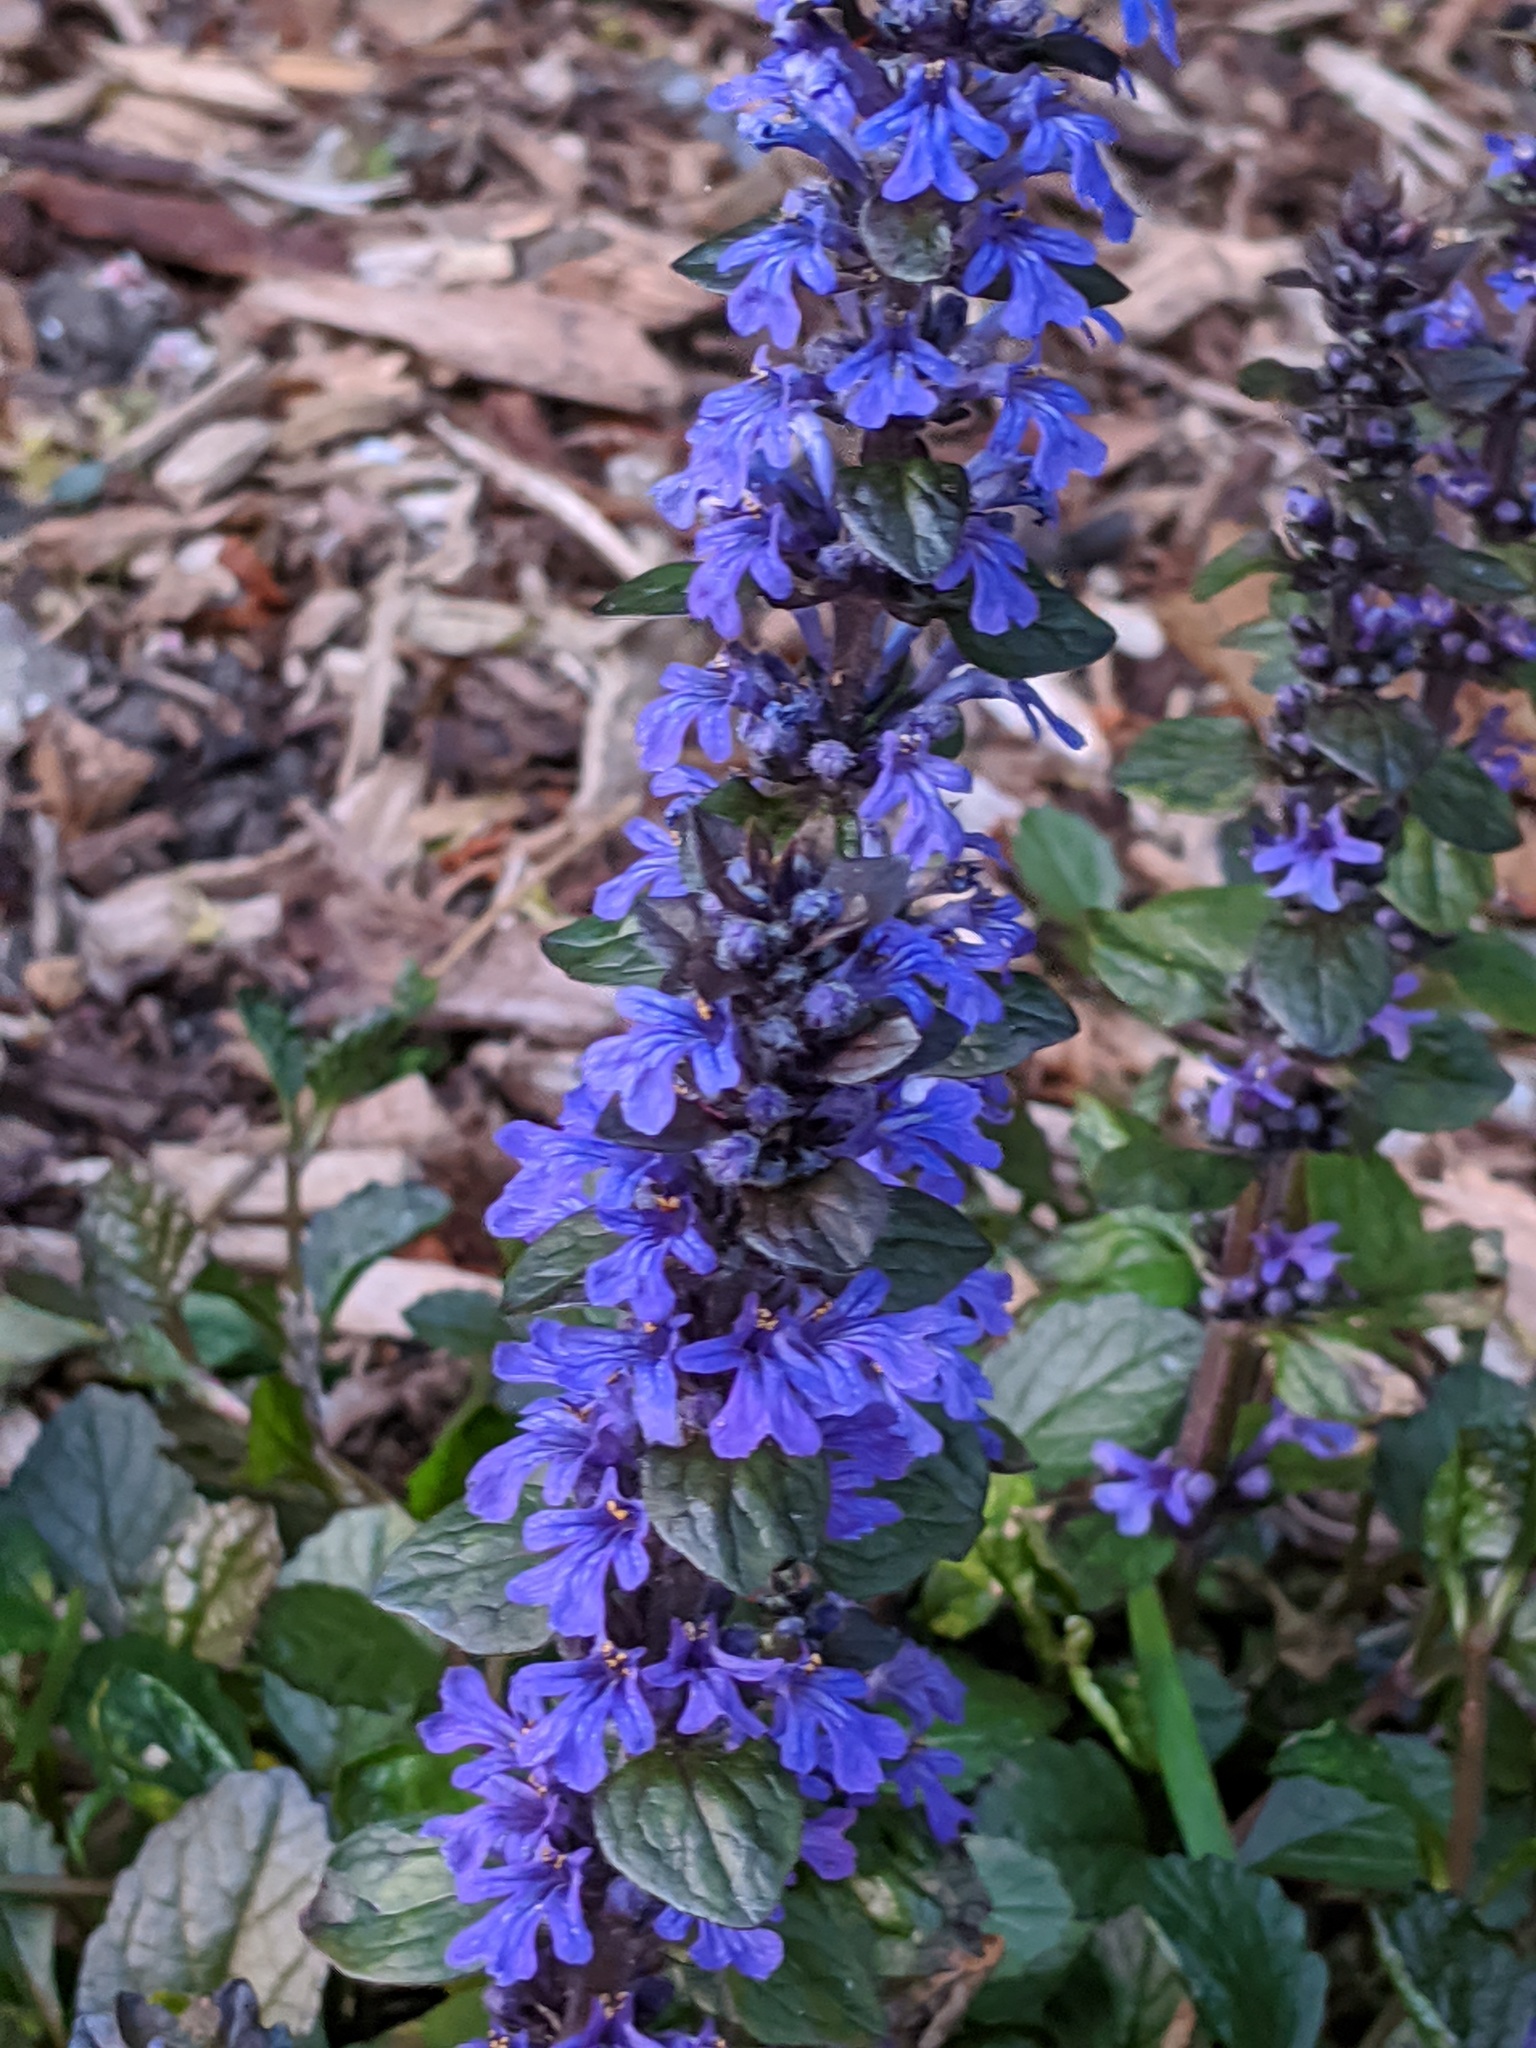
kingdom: Plantae
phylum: Tracheophyta
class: Magnoliopsida
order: Lamiales
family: Lamiaceae
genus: Ajuga
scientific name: Ajuga reptans
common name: Bugle
